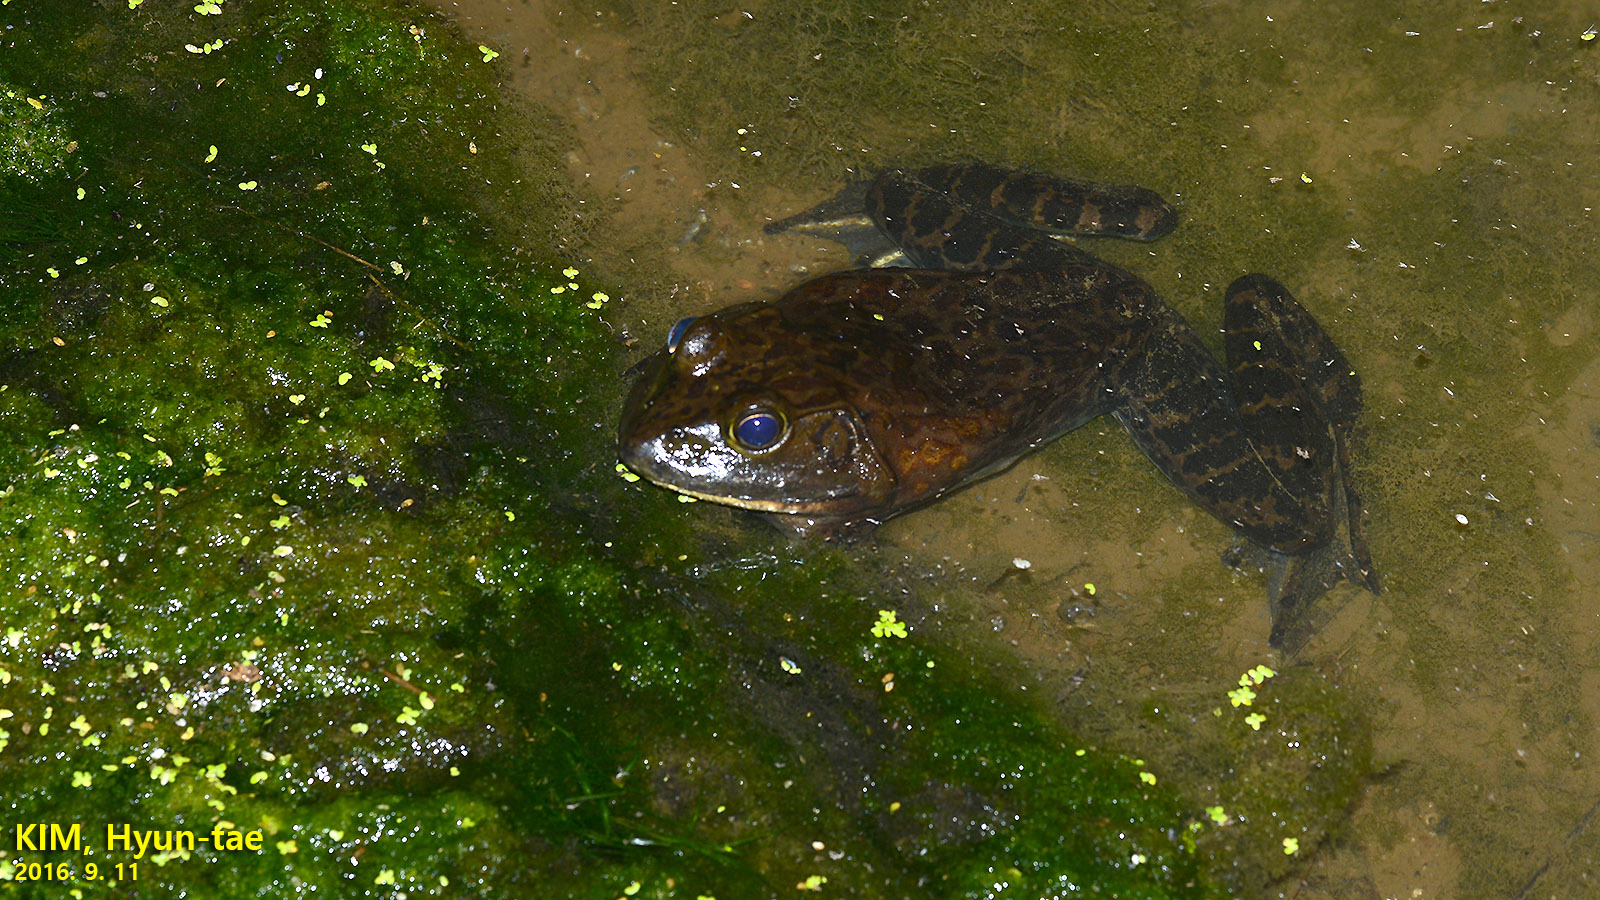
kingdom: Animalia
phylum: Chordata
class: Amphibia
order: Anura
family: Ranidae
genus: Lithobates
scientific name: Lithobates catesbeianus
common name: American bullfrog
